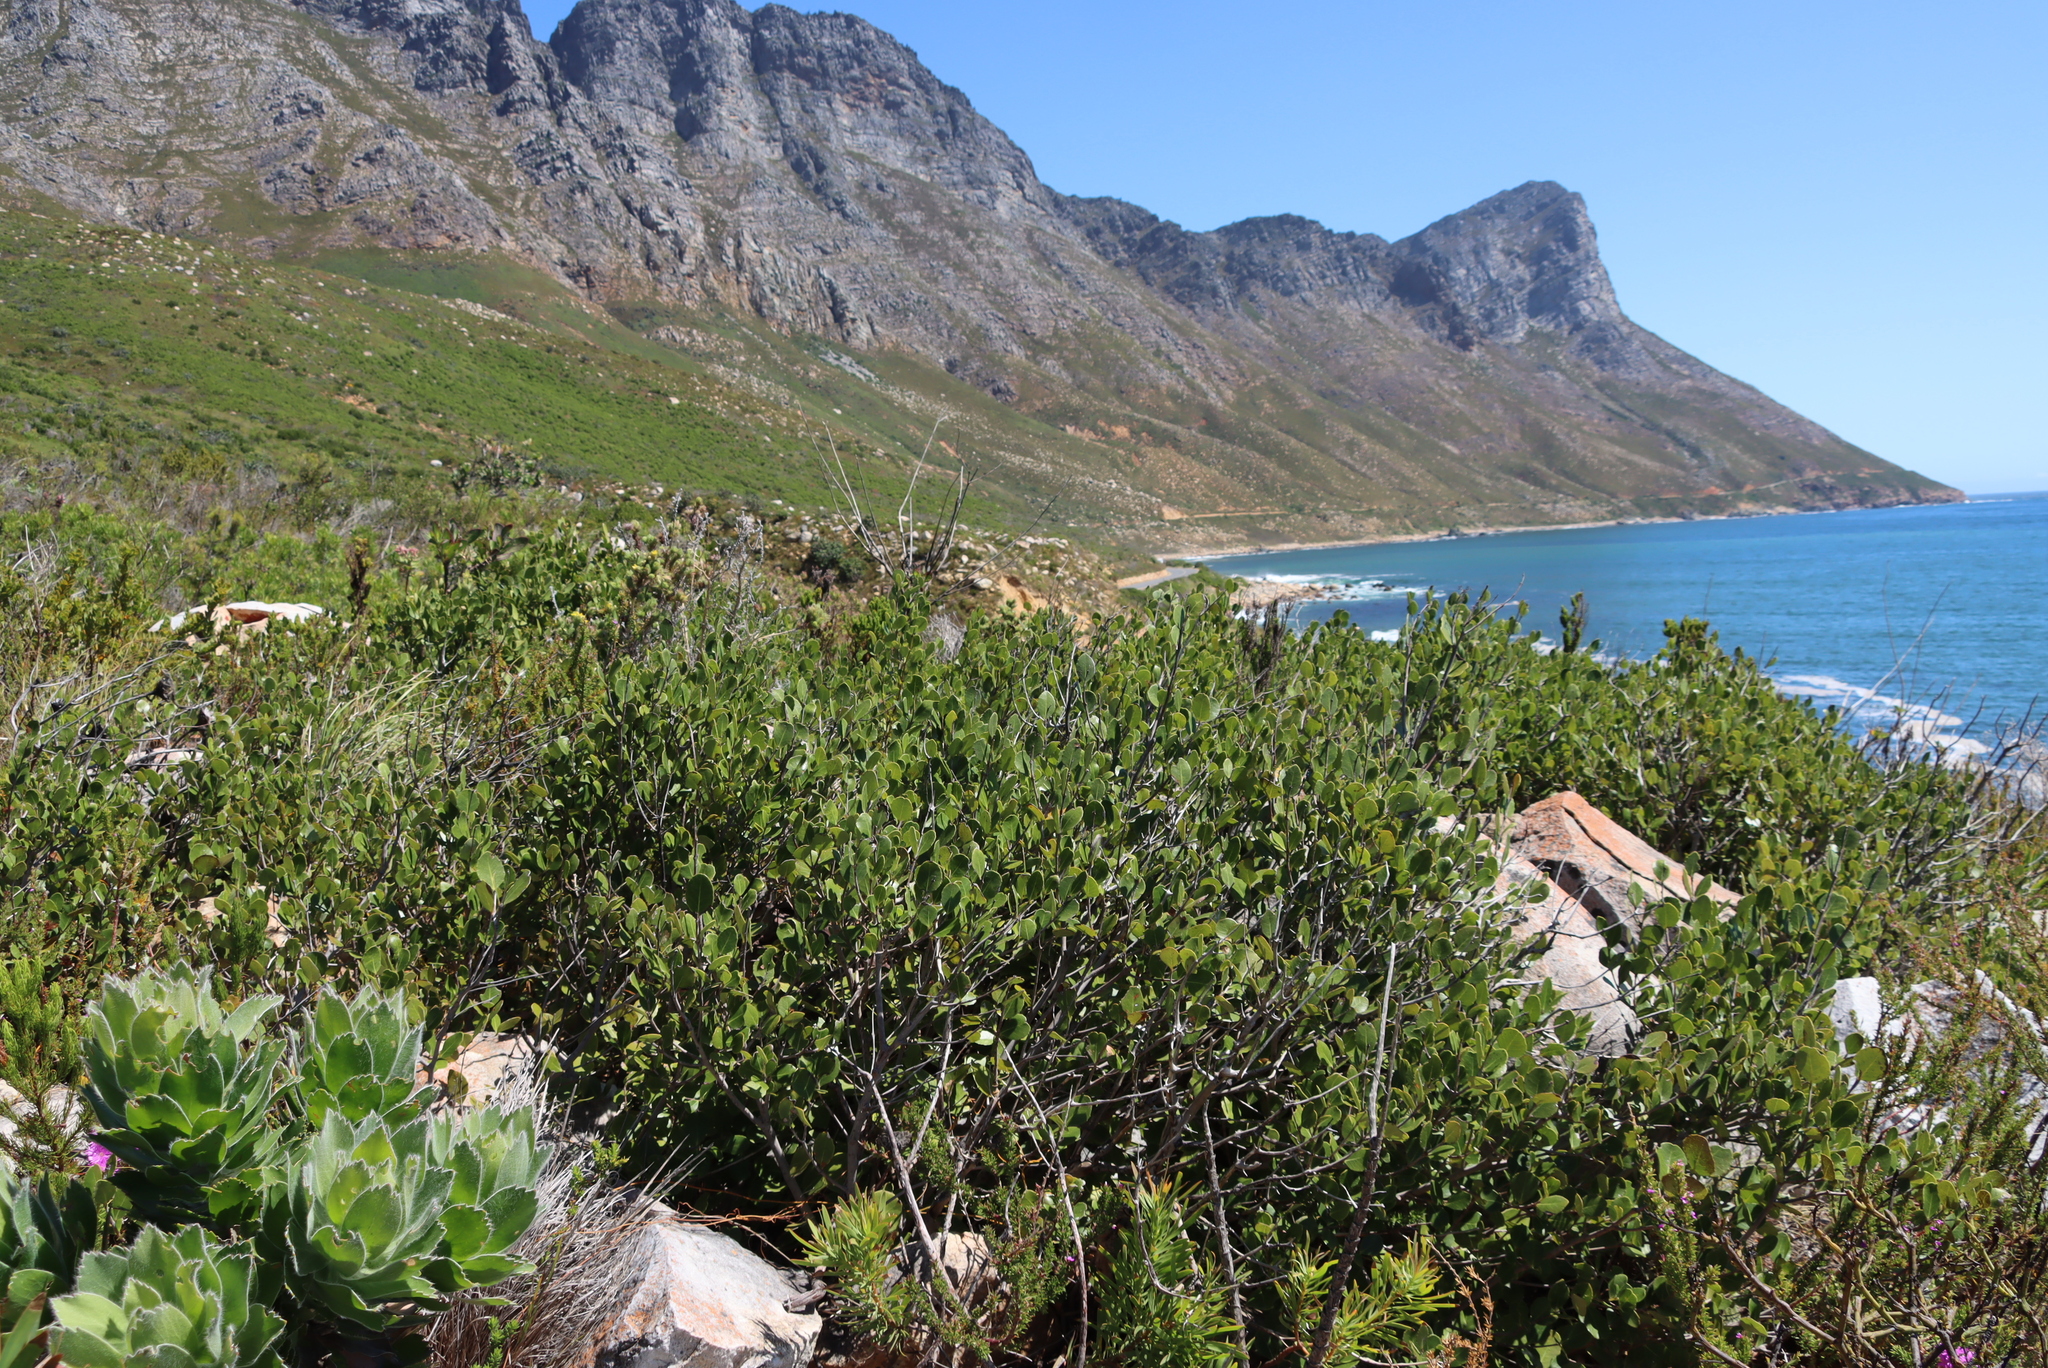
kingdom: Plantae
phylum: Tracheophyta
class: Magnoliopsida
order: Celastrales
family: Celastraceae
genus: Cassine
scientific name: Cassine peragua
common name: Cape saffron
